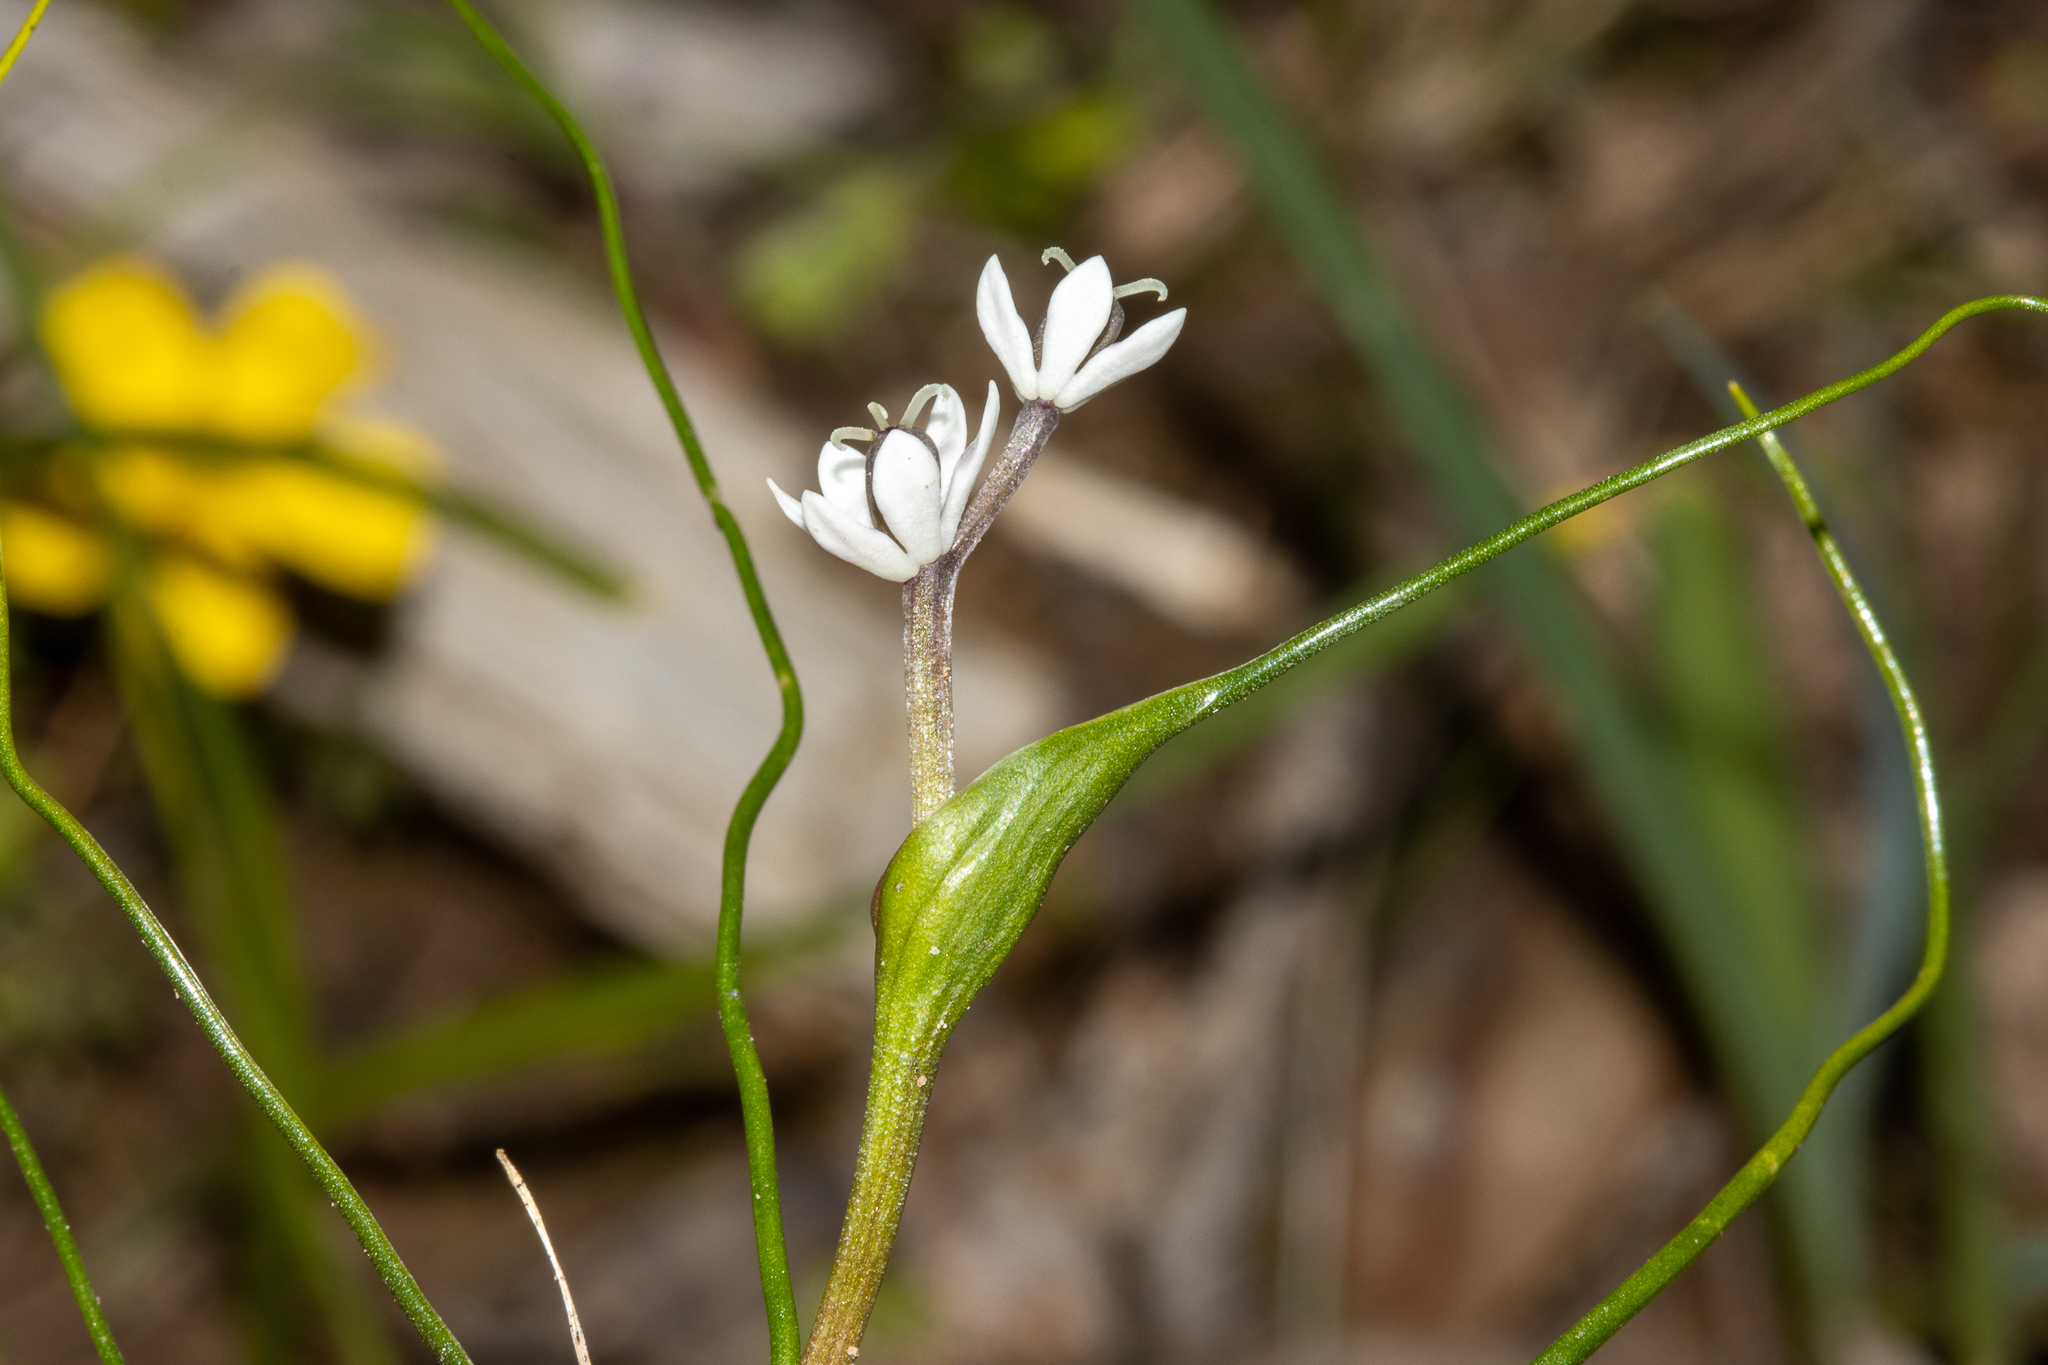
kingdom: Plantae
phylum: Tracheophyta
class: Liliopsida
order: Liliales
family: Colchicaceae
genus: Wurmbea
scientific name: Wurmbea dioica
